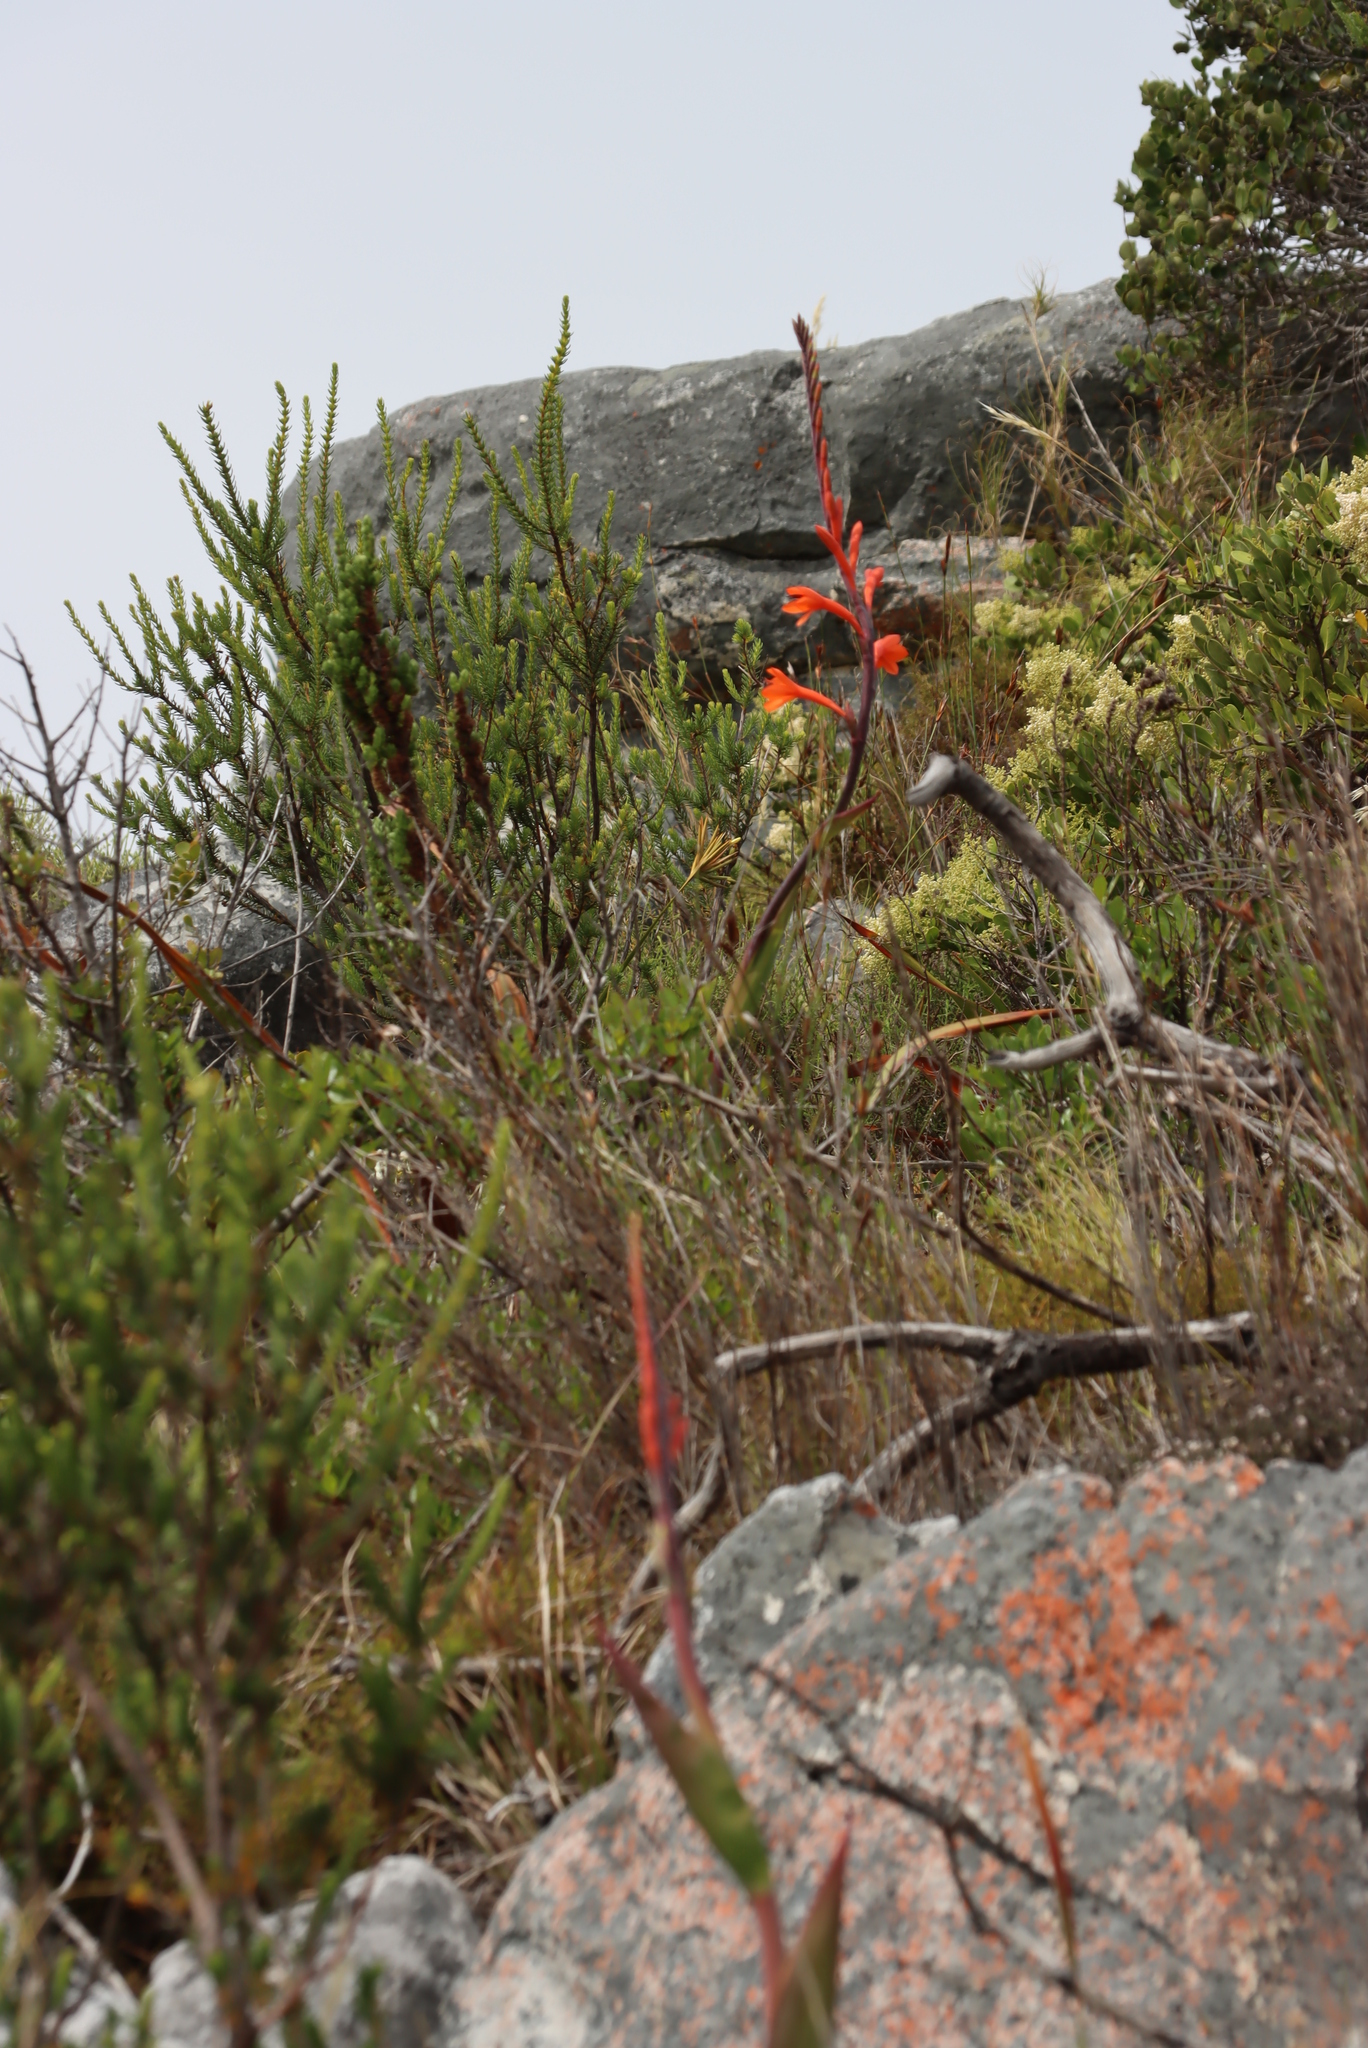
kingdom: Plantae
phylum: Tracheophyta
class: Liliopsida
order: Asparagales
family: Iridaceae
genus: Watsonia
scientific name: Watsonia tabularis
